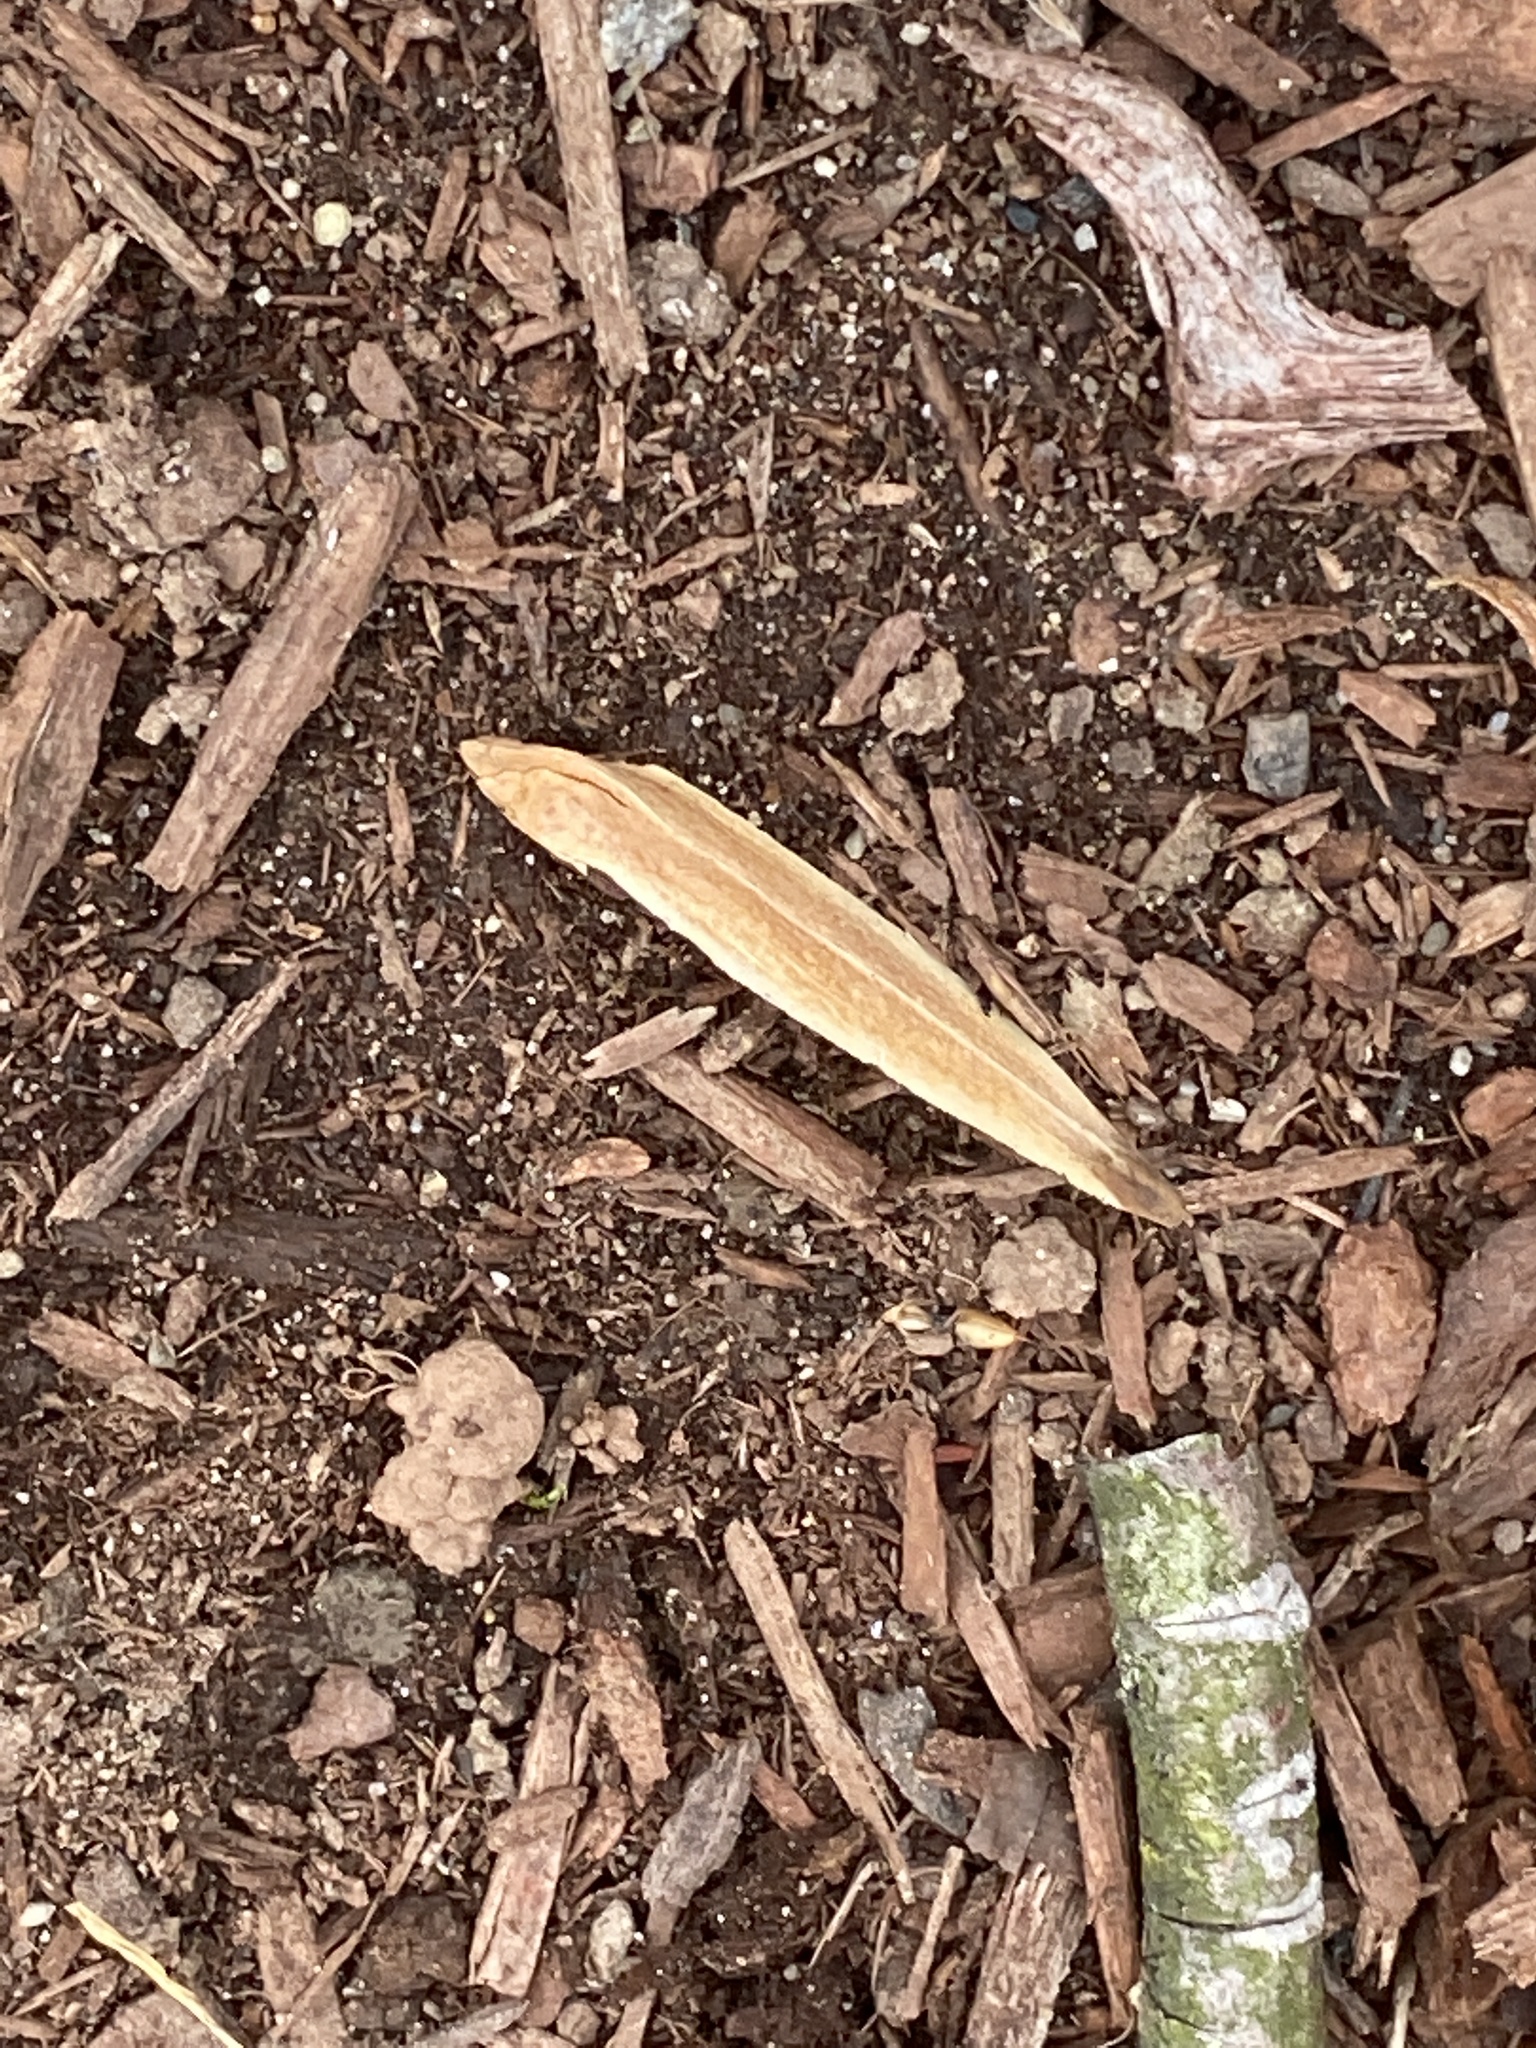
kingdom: Plantae
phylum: Tracheophyta
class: Magnoliopsida
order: Magnoliales
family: Magnoliaceae
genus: Liriodendron
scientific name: Liriodendron tulipifera
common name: Tulip tree
